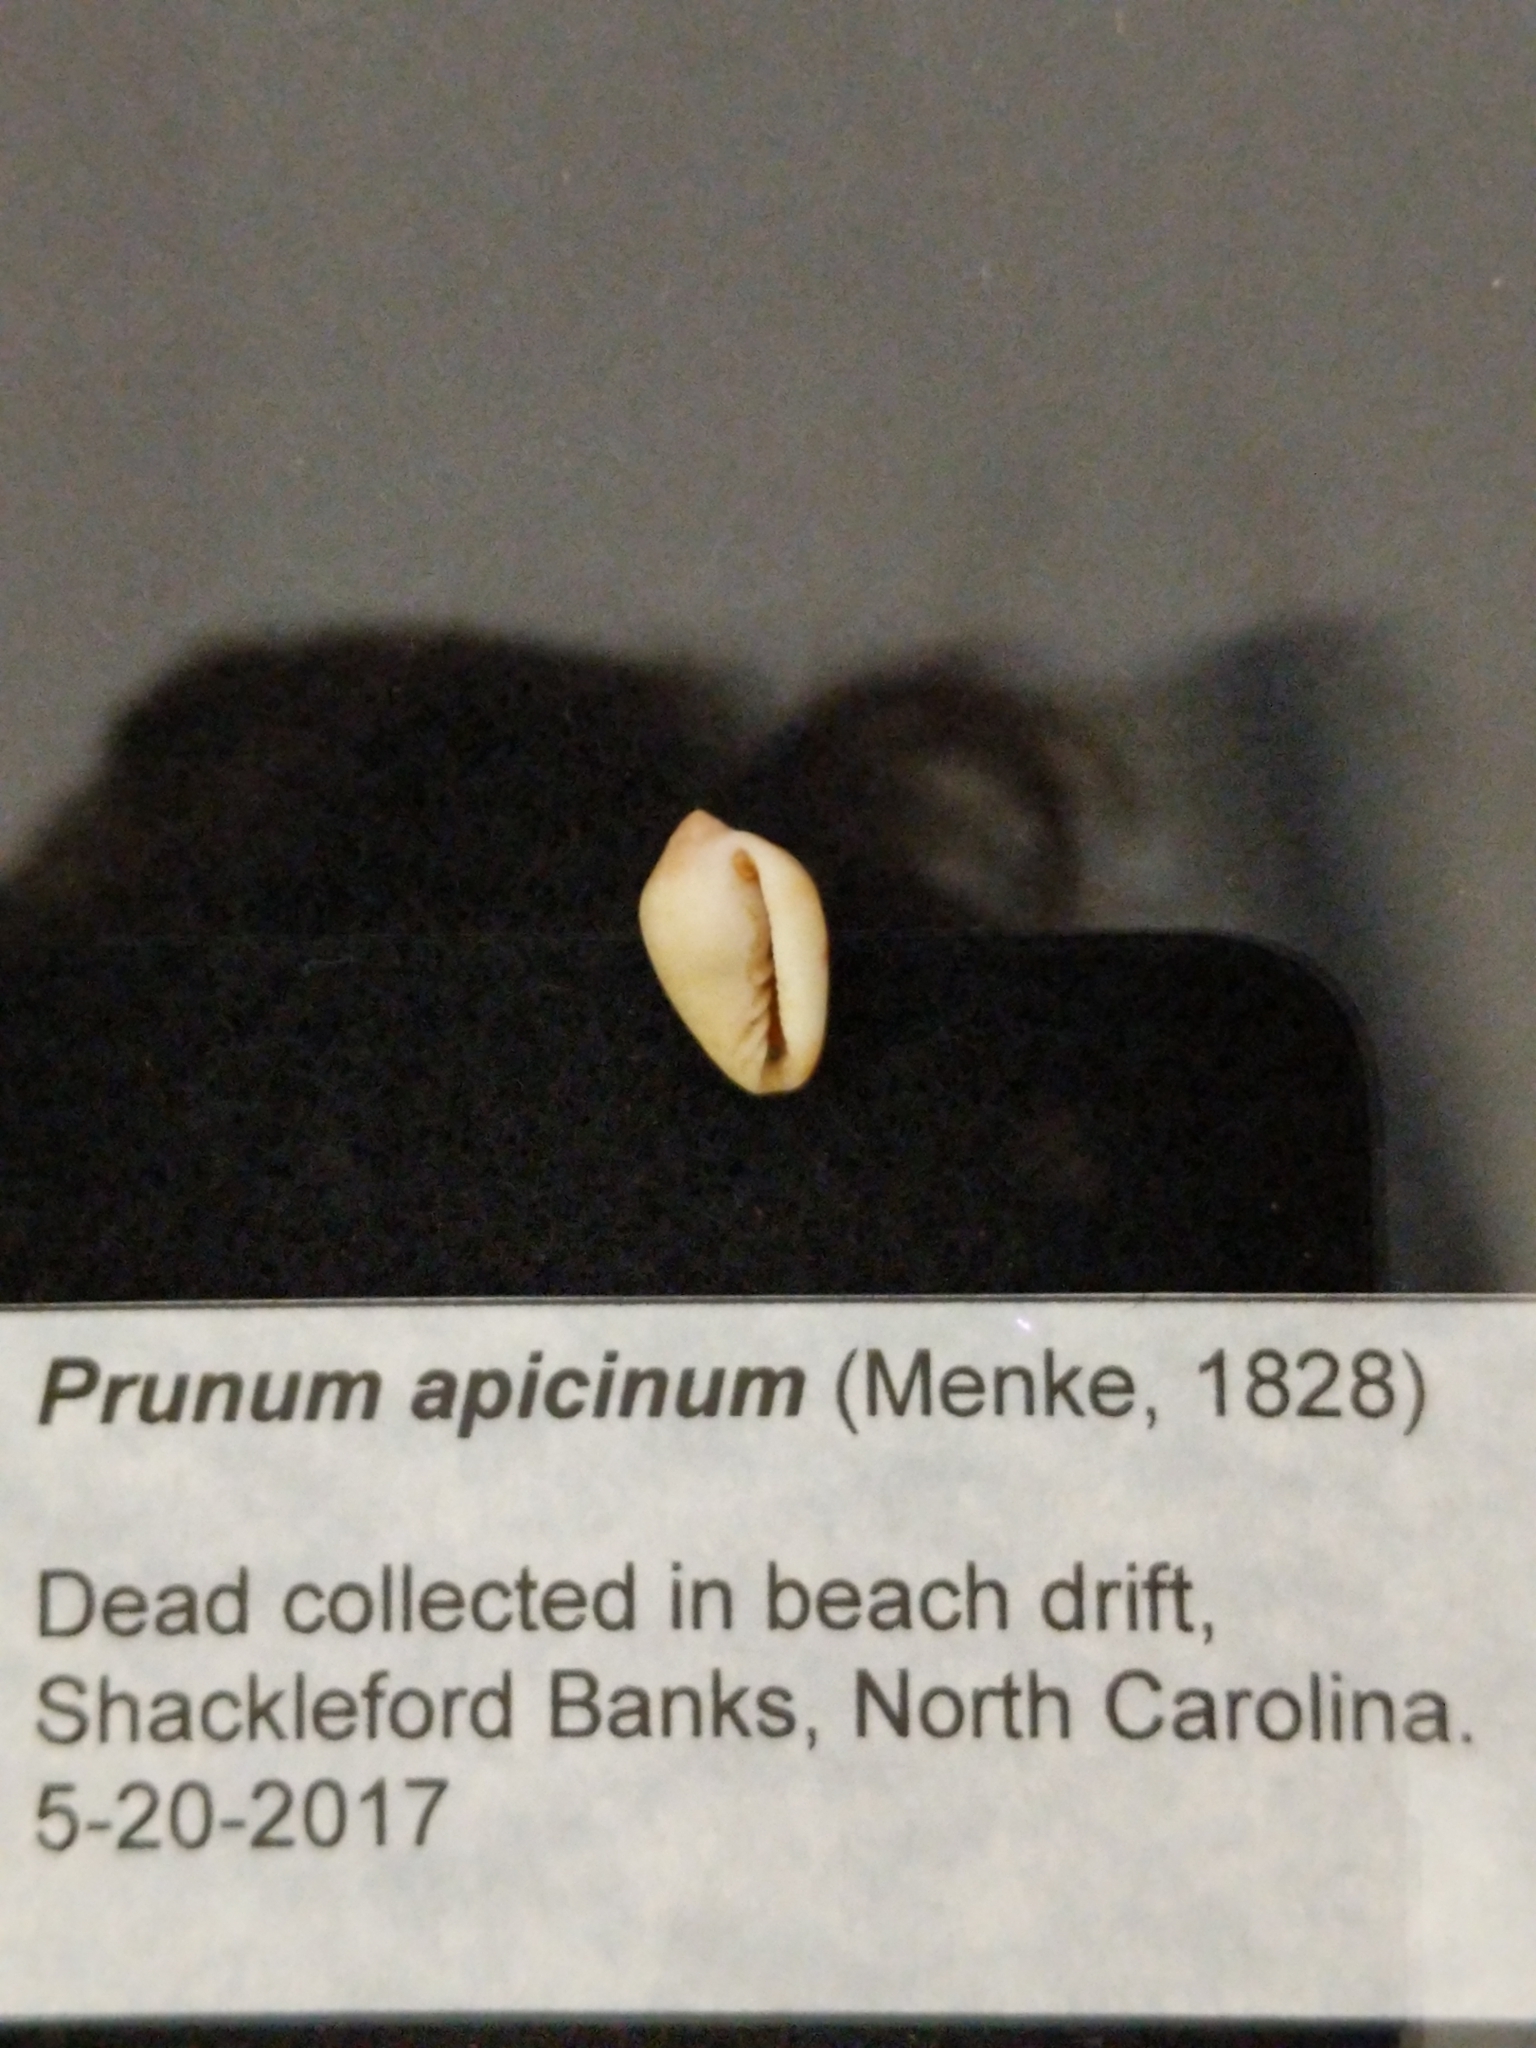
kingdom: Animalia
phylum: Mollusca
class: Gastropoda
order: Neogastropoda
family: Marginellidae
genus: Prunum
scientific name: Prunum apicinum
